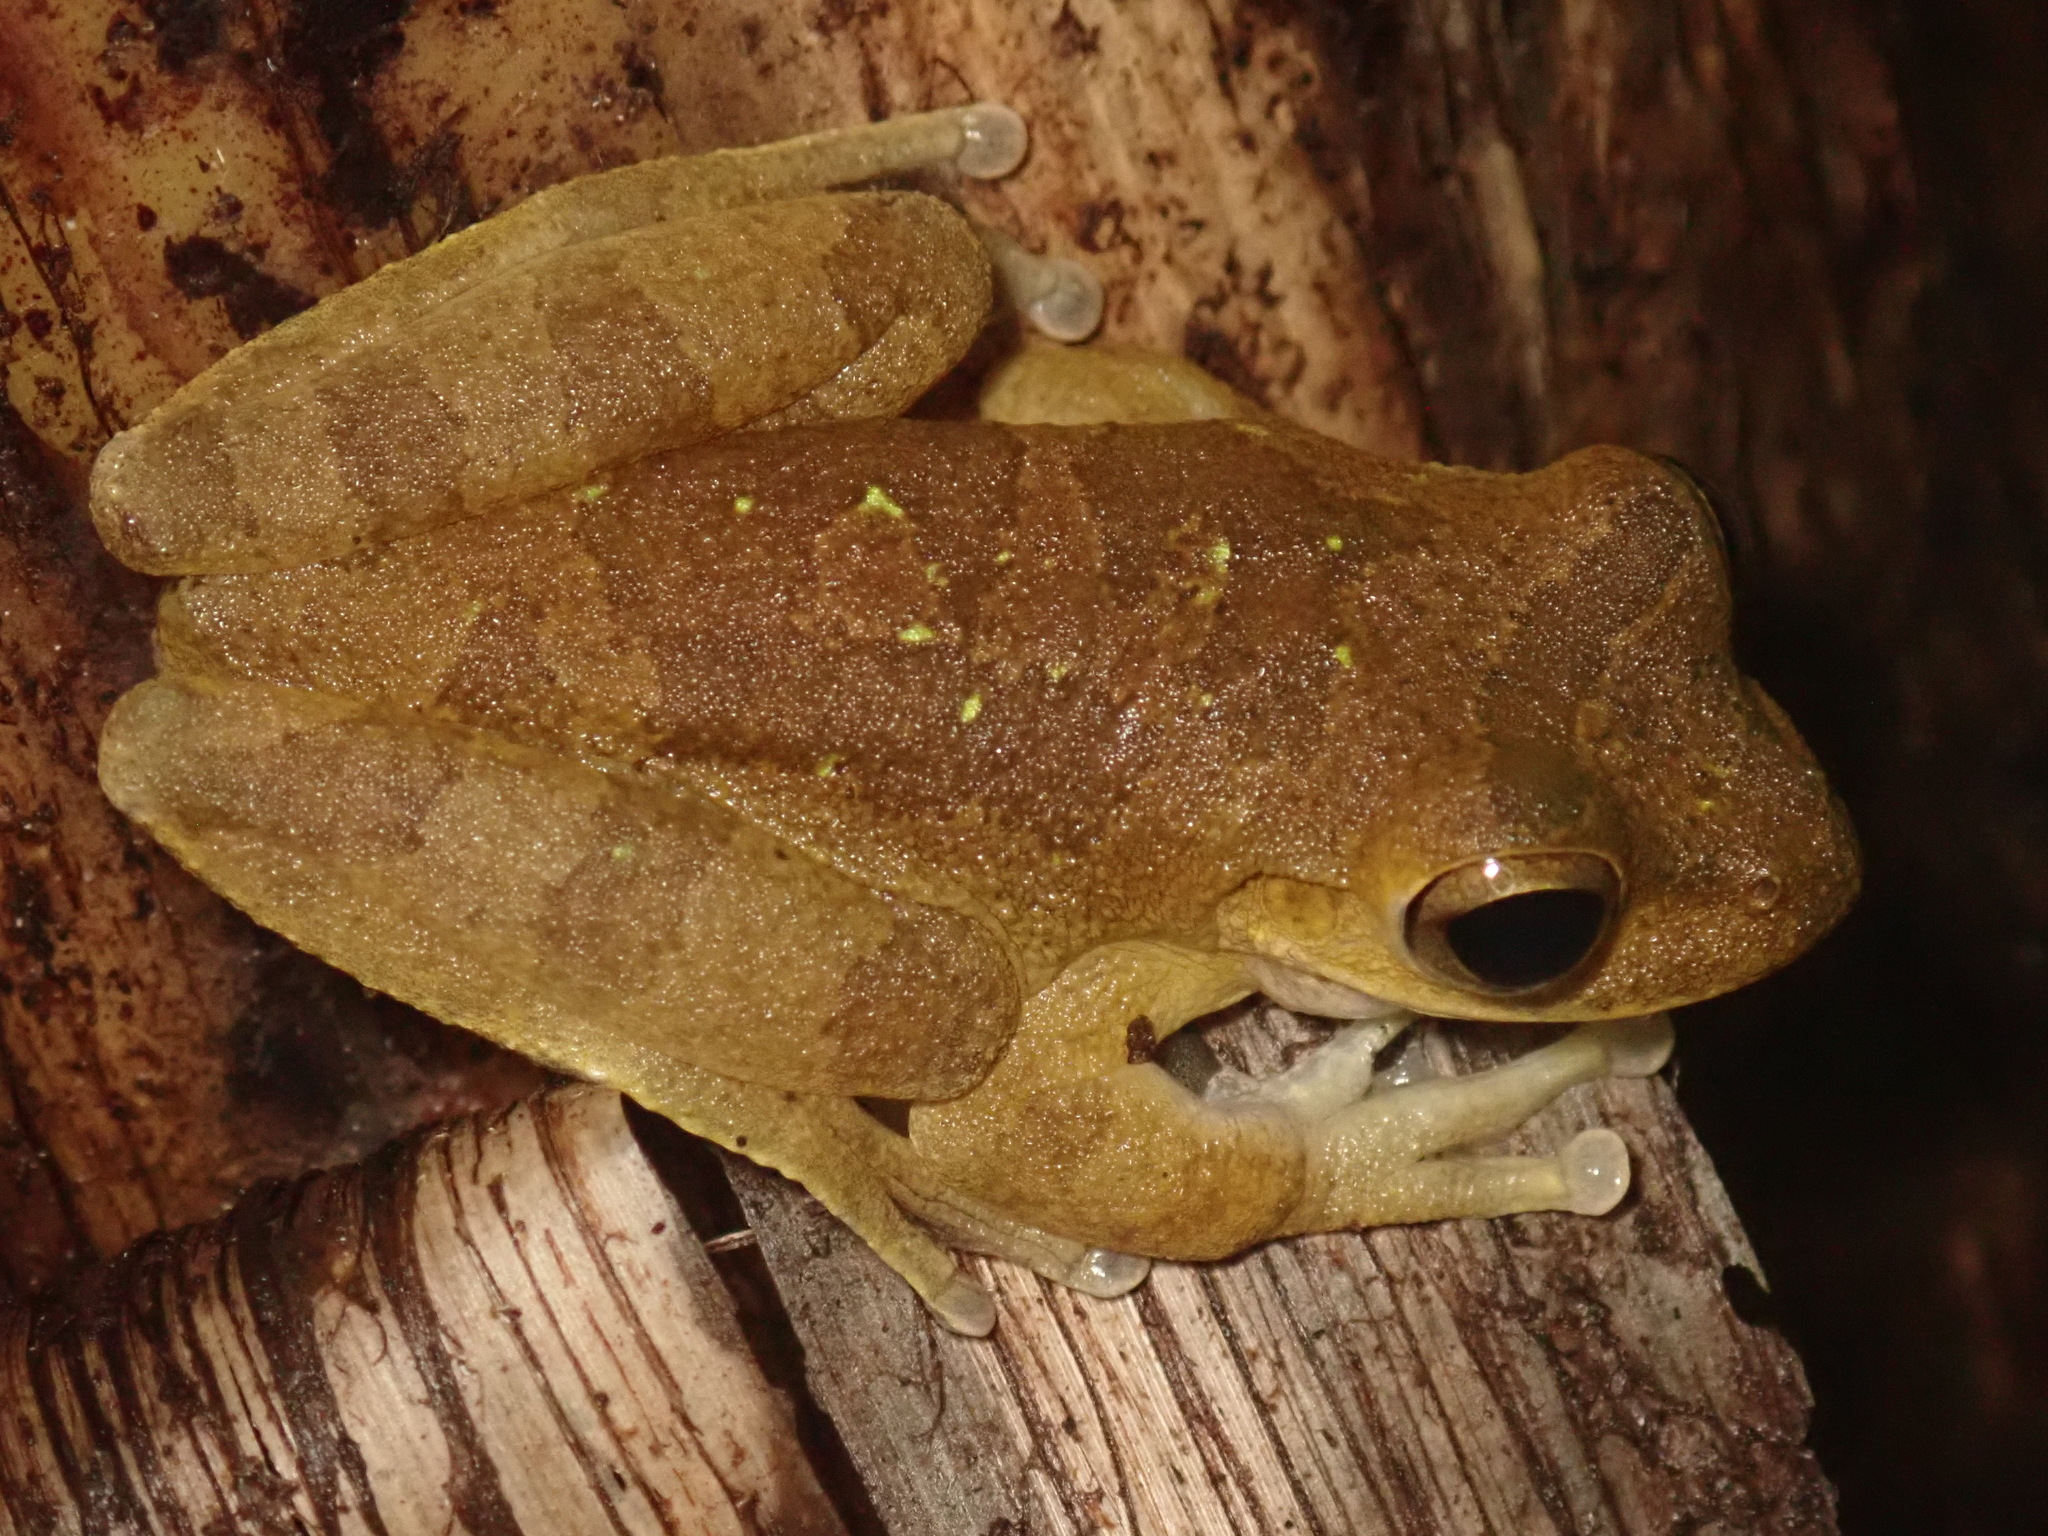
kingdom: Animalia
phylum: Chordata
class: Amphibia
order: Anura
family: Hylidae
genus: Smilisca
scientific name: Smilisca sordida
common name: Veragua cross-banded treefrog
